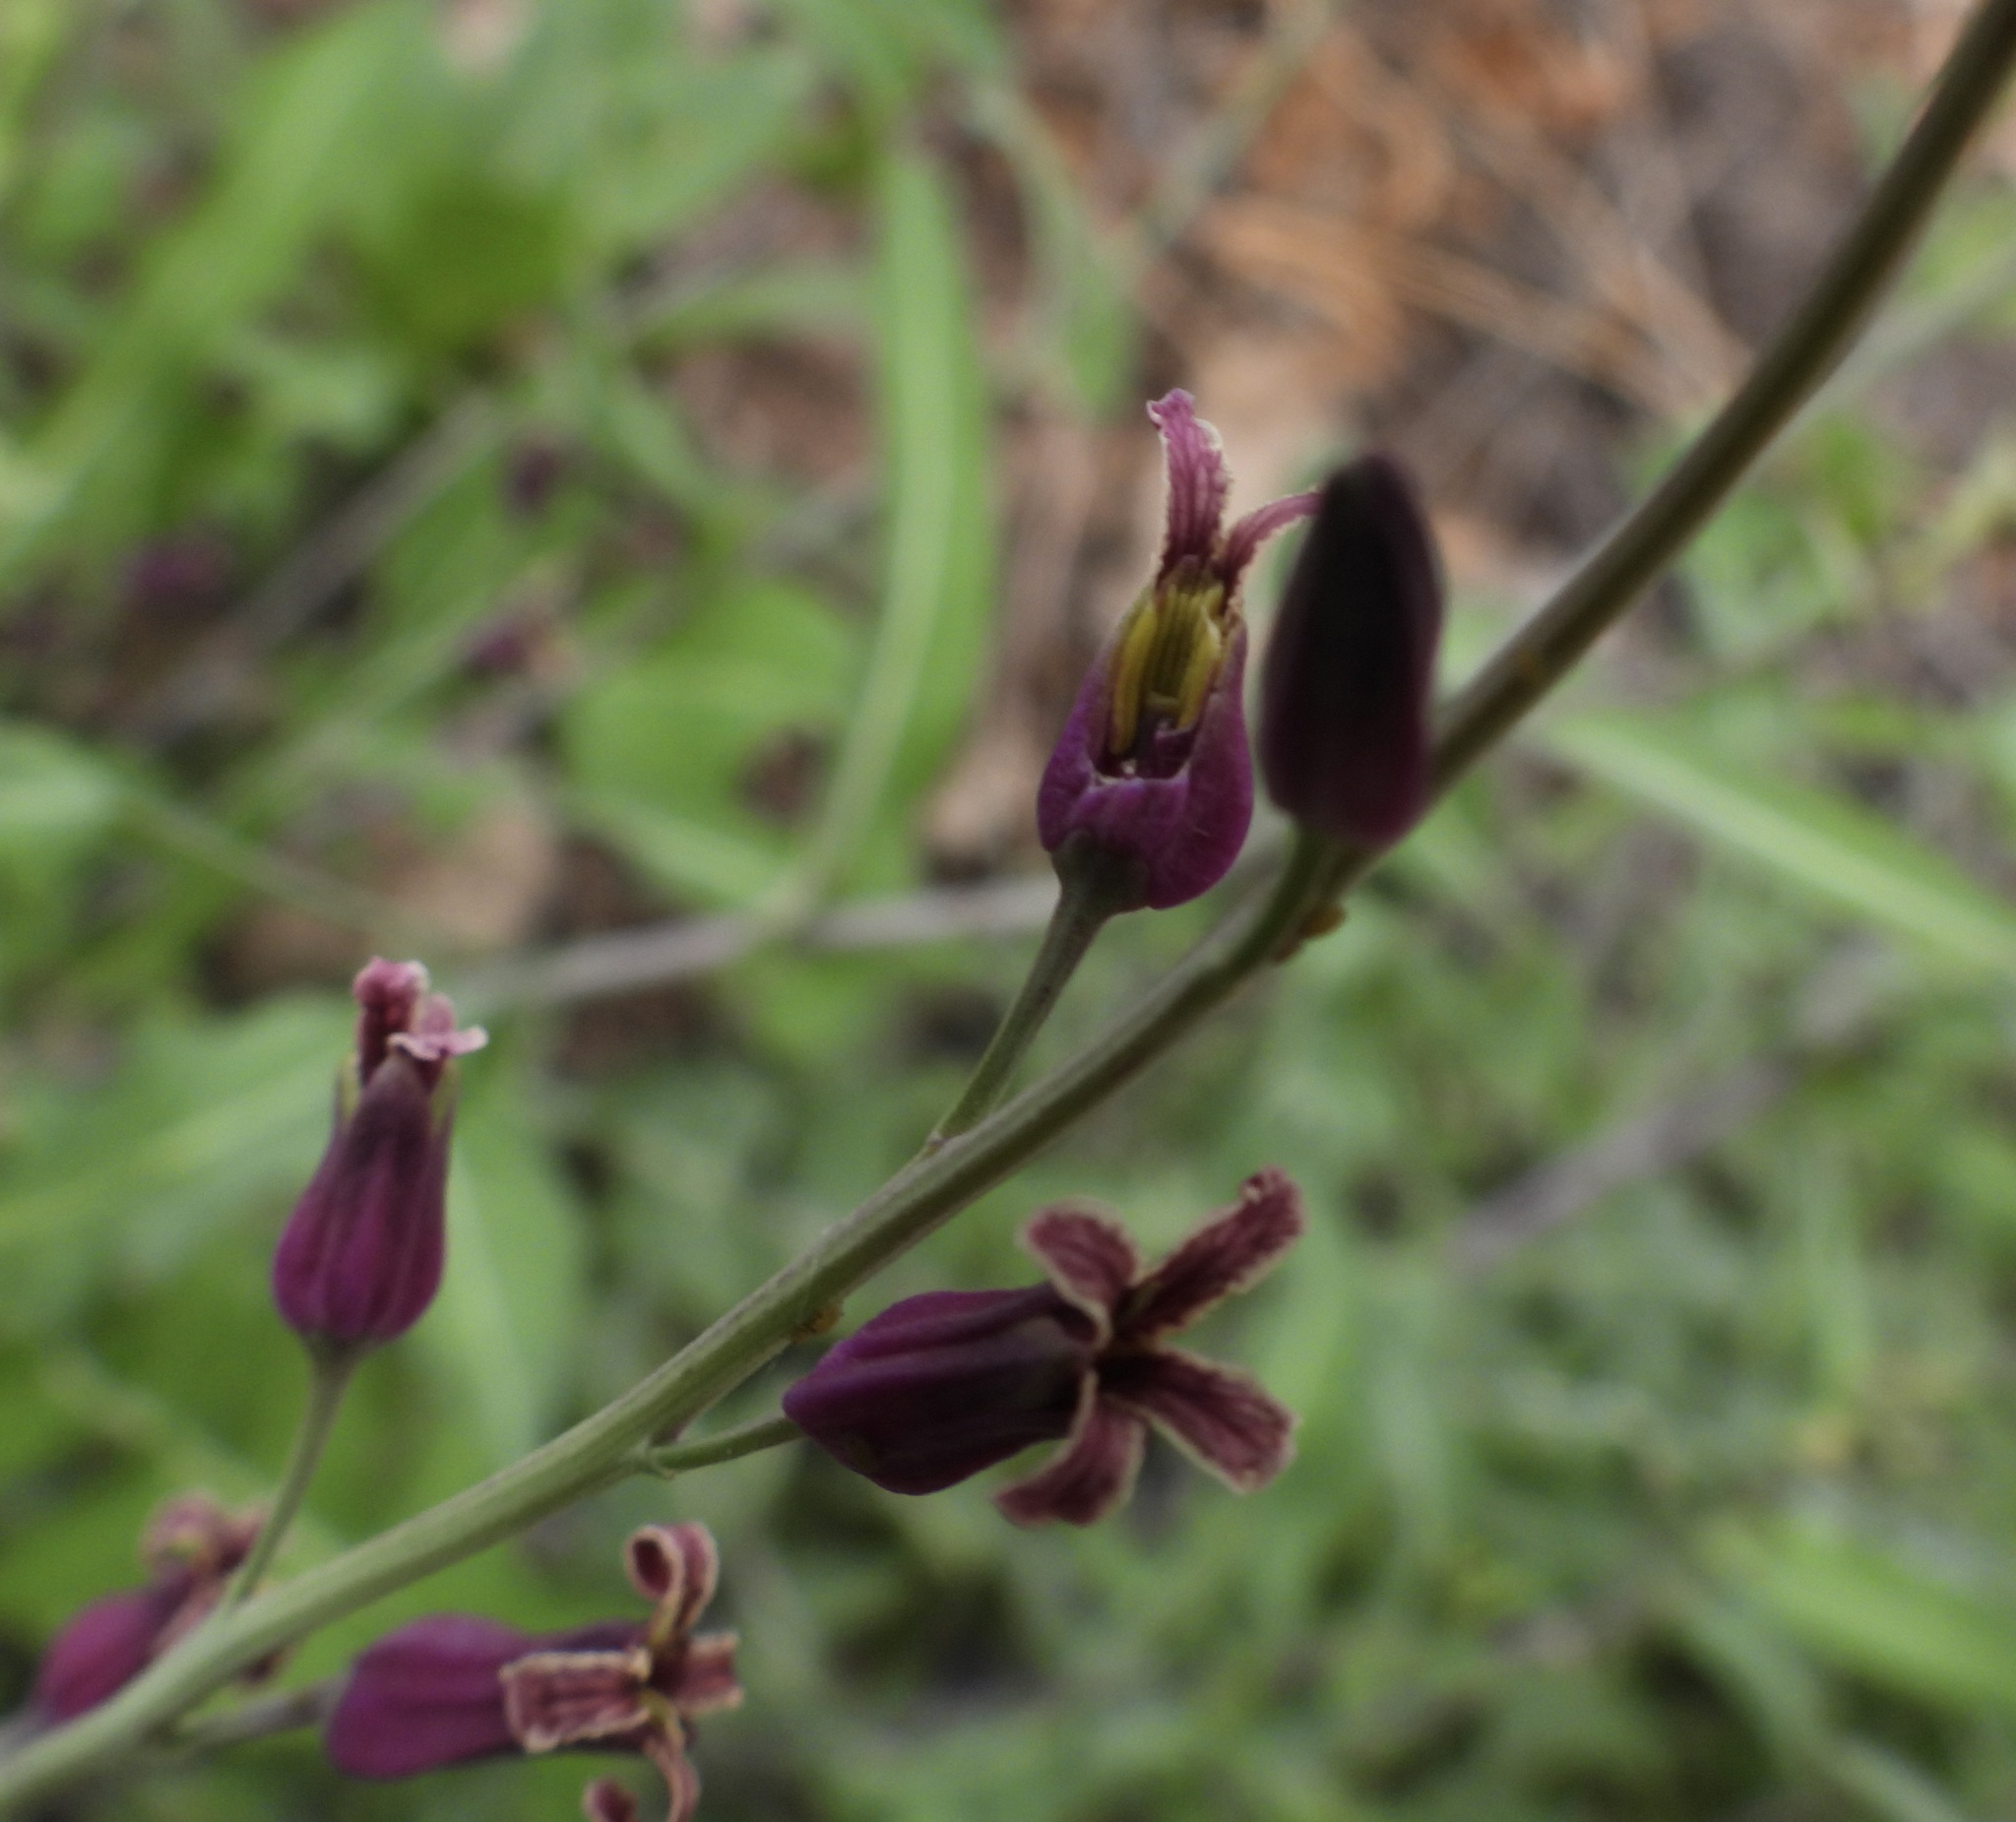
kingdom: Plantae
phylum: Tracheophyta
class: Magnoliopsida
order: Brassicales
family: Brassicaceae
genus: Streptanthus
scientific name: Streptanthus carinatus
